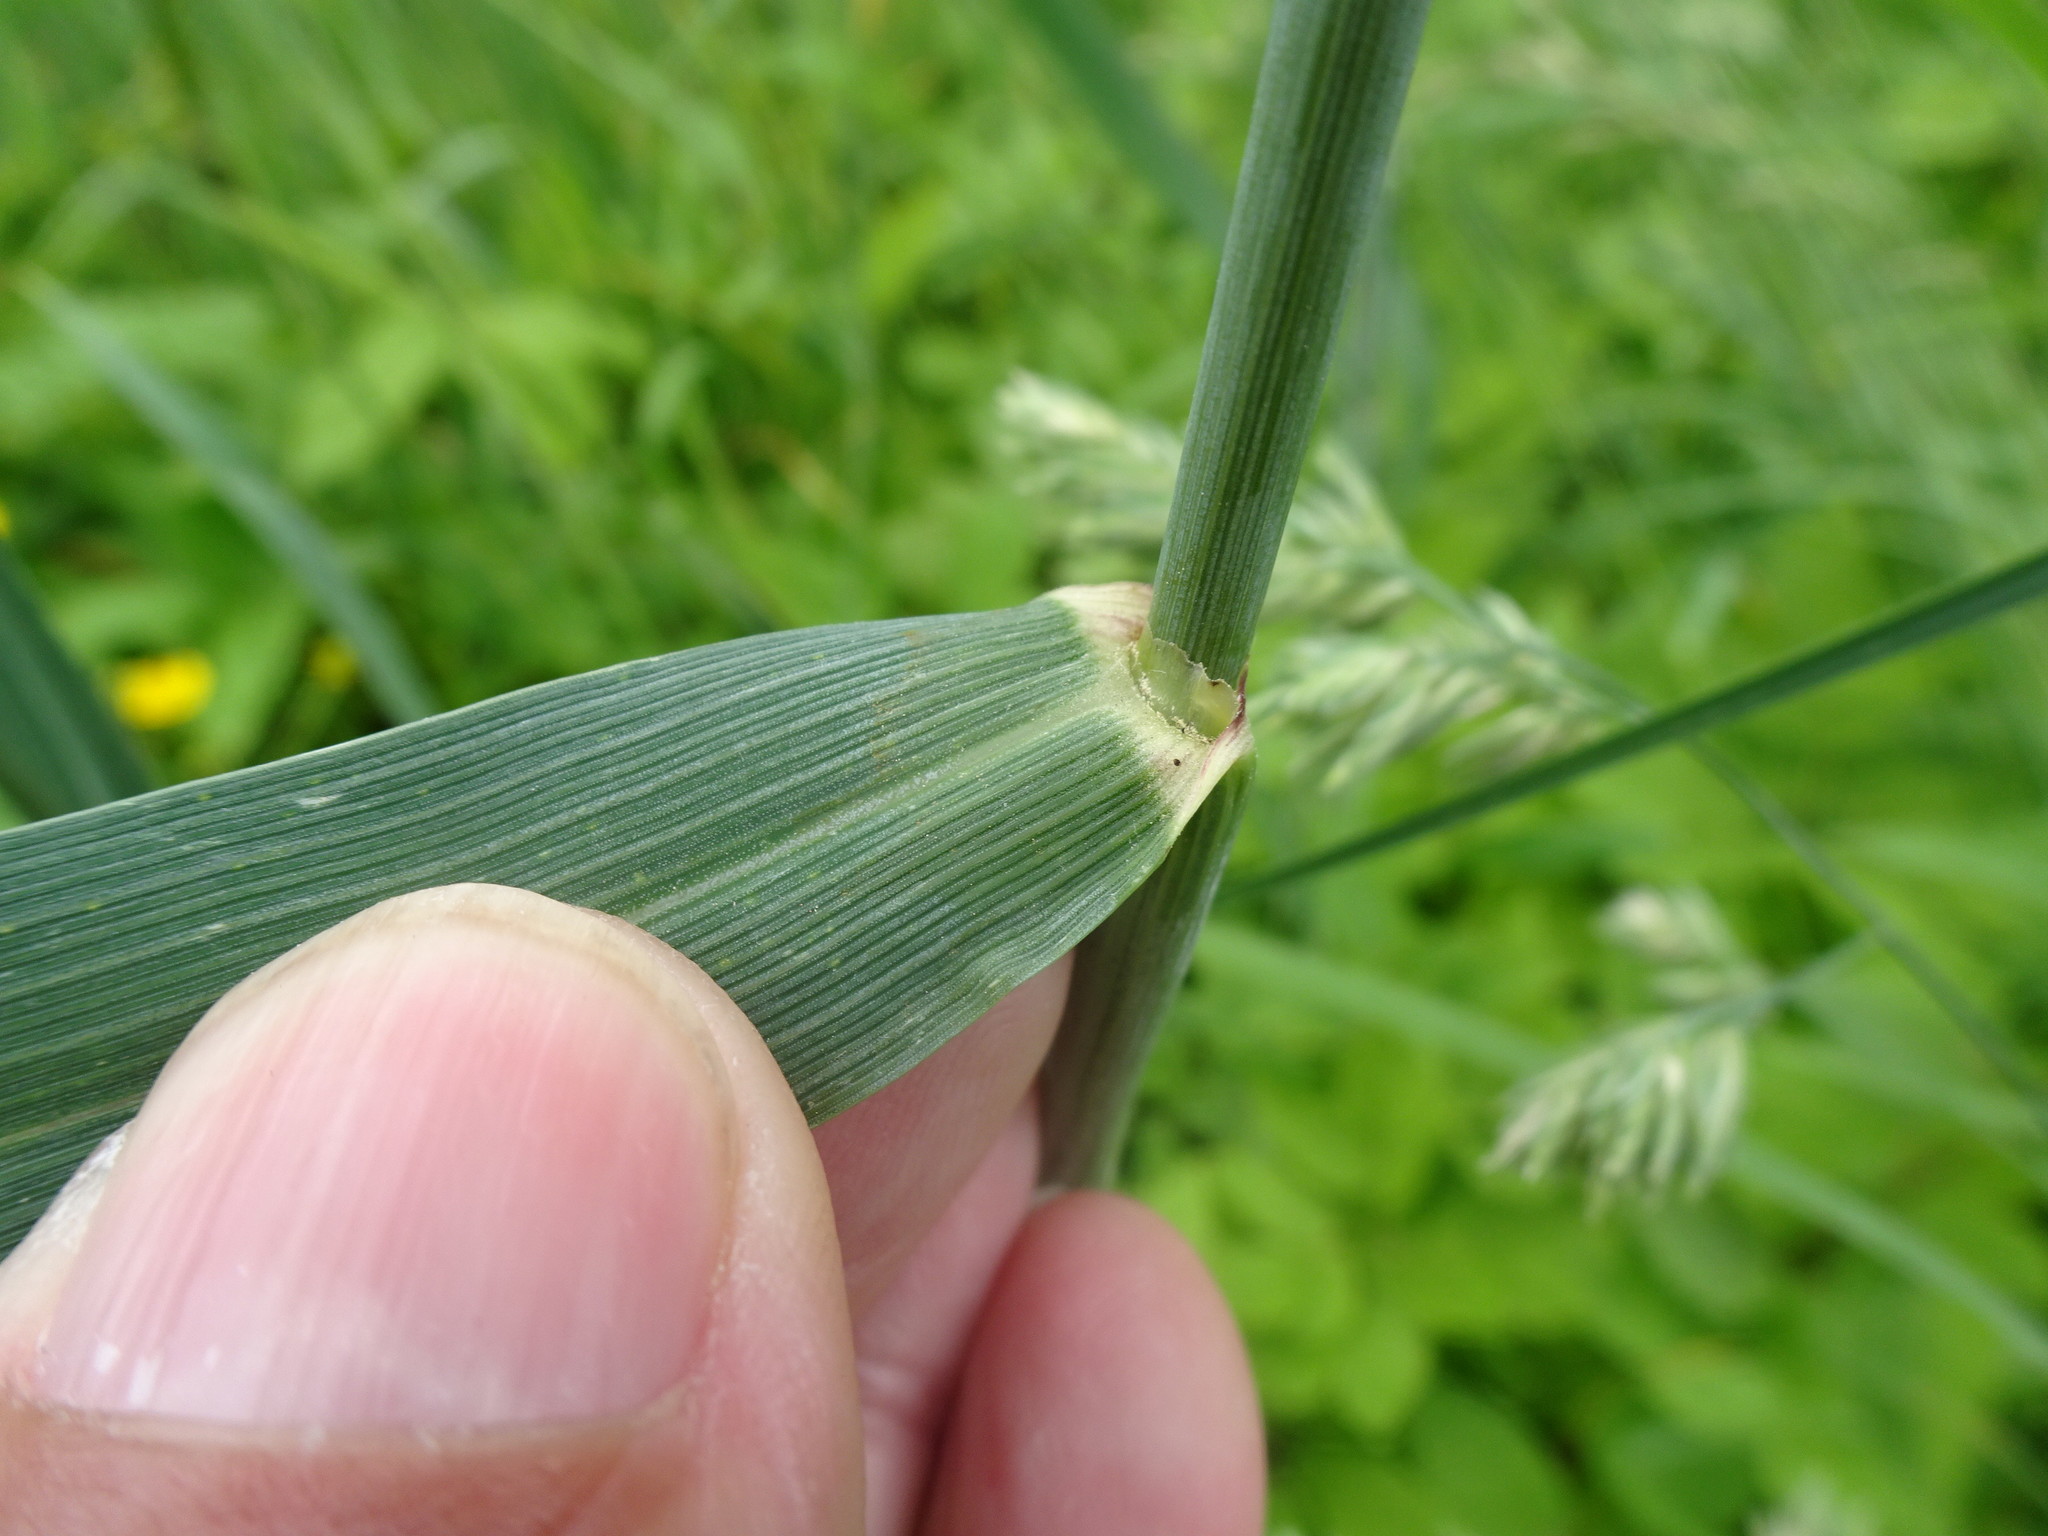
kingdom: Plantae
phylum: Tracheophyta
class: Liliopsida
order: Poales
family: Poaceae
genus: Triticum
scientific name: Triticum aestivum
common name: Common wheat
